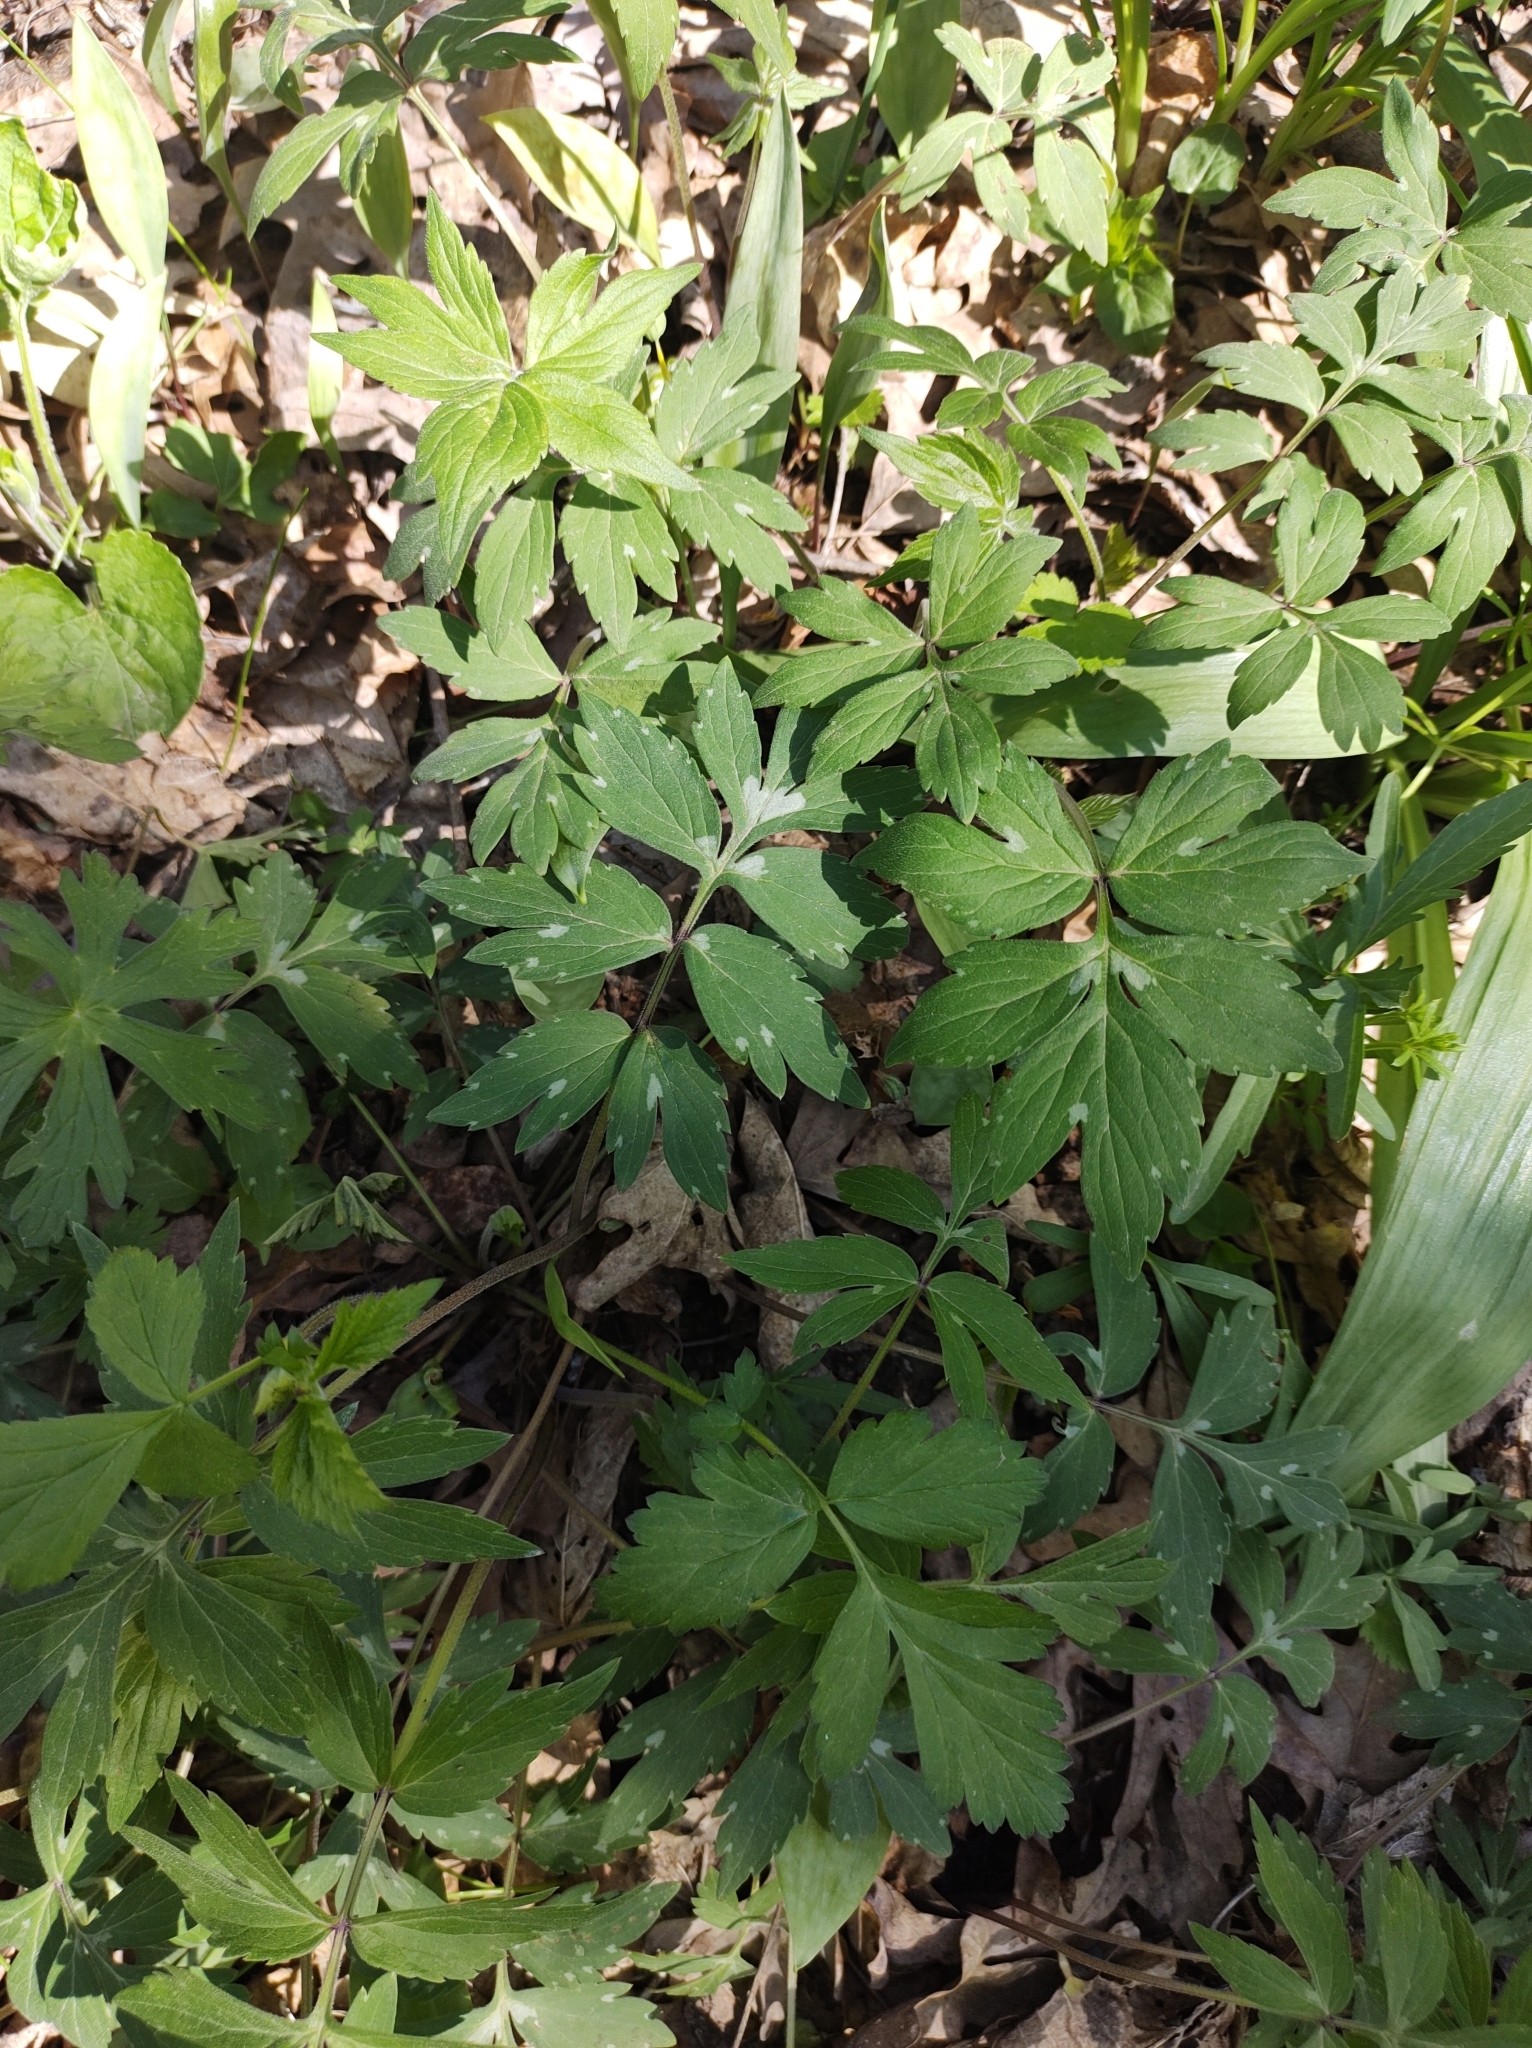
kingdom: Plantae
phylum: Tracheophyta
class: Magnoliopsida
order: Boraginales
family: Hydrophyllaceae
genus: Hydrophyllum
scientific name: Hydrophyllum virginianum
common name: Virginia waterleaf
